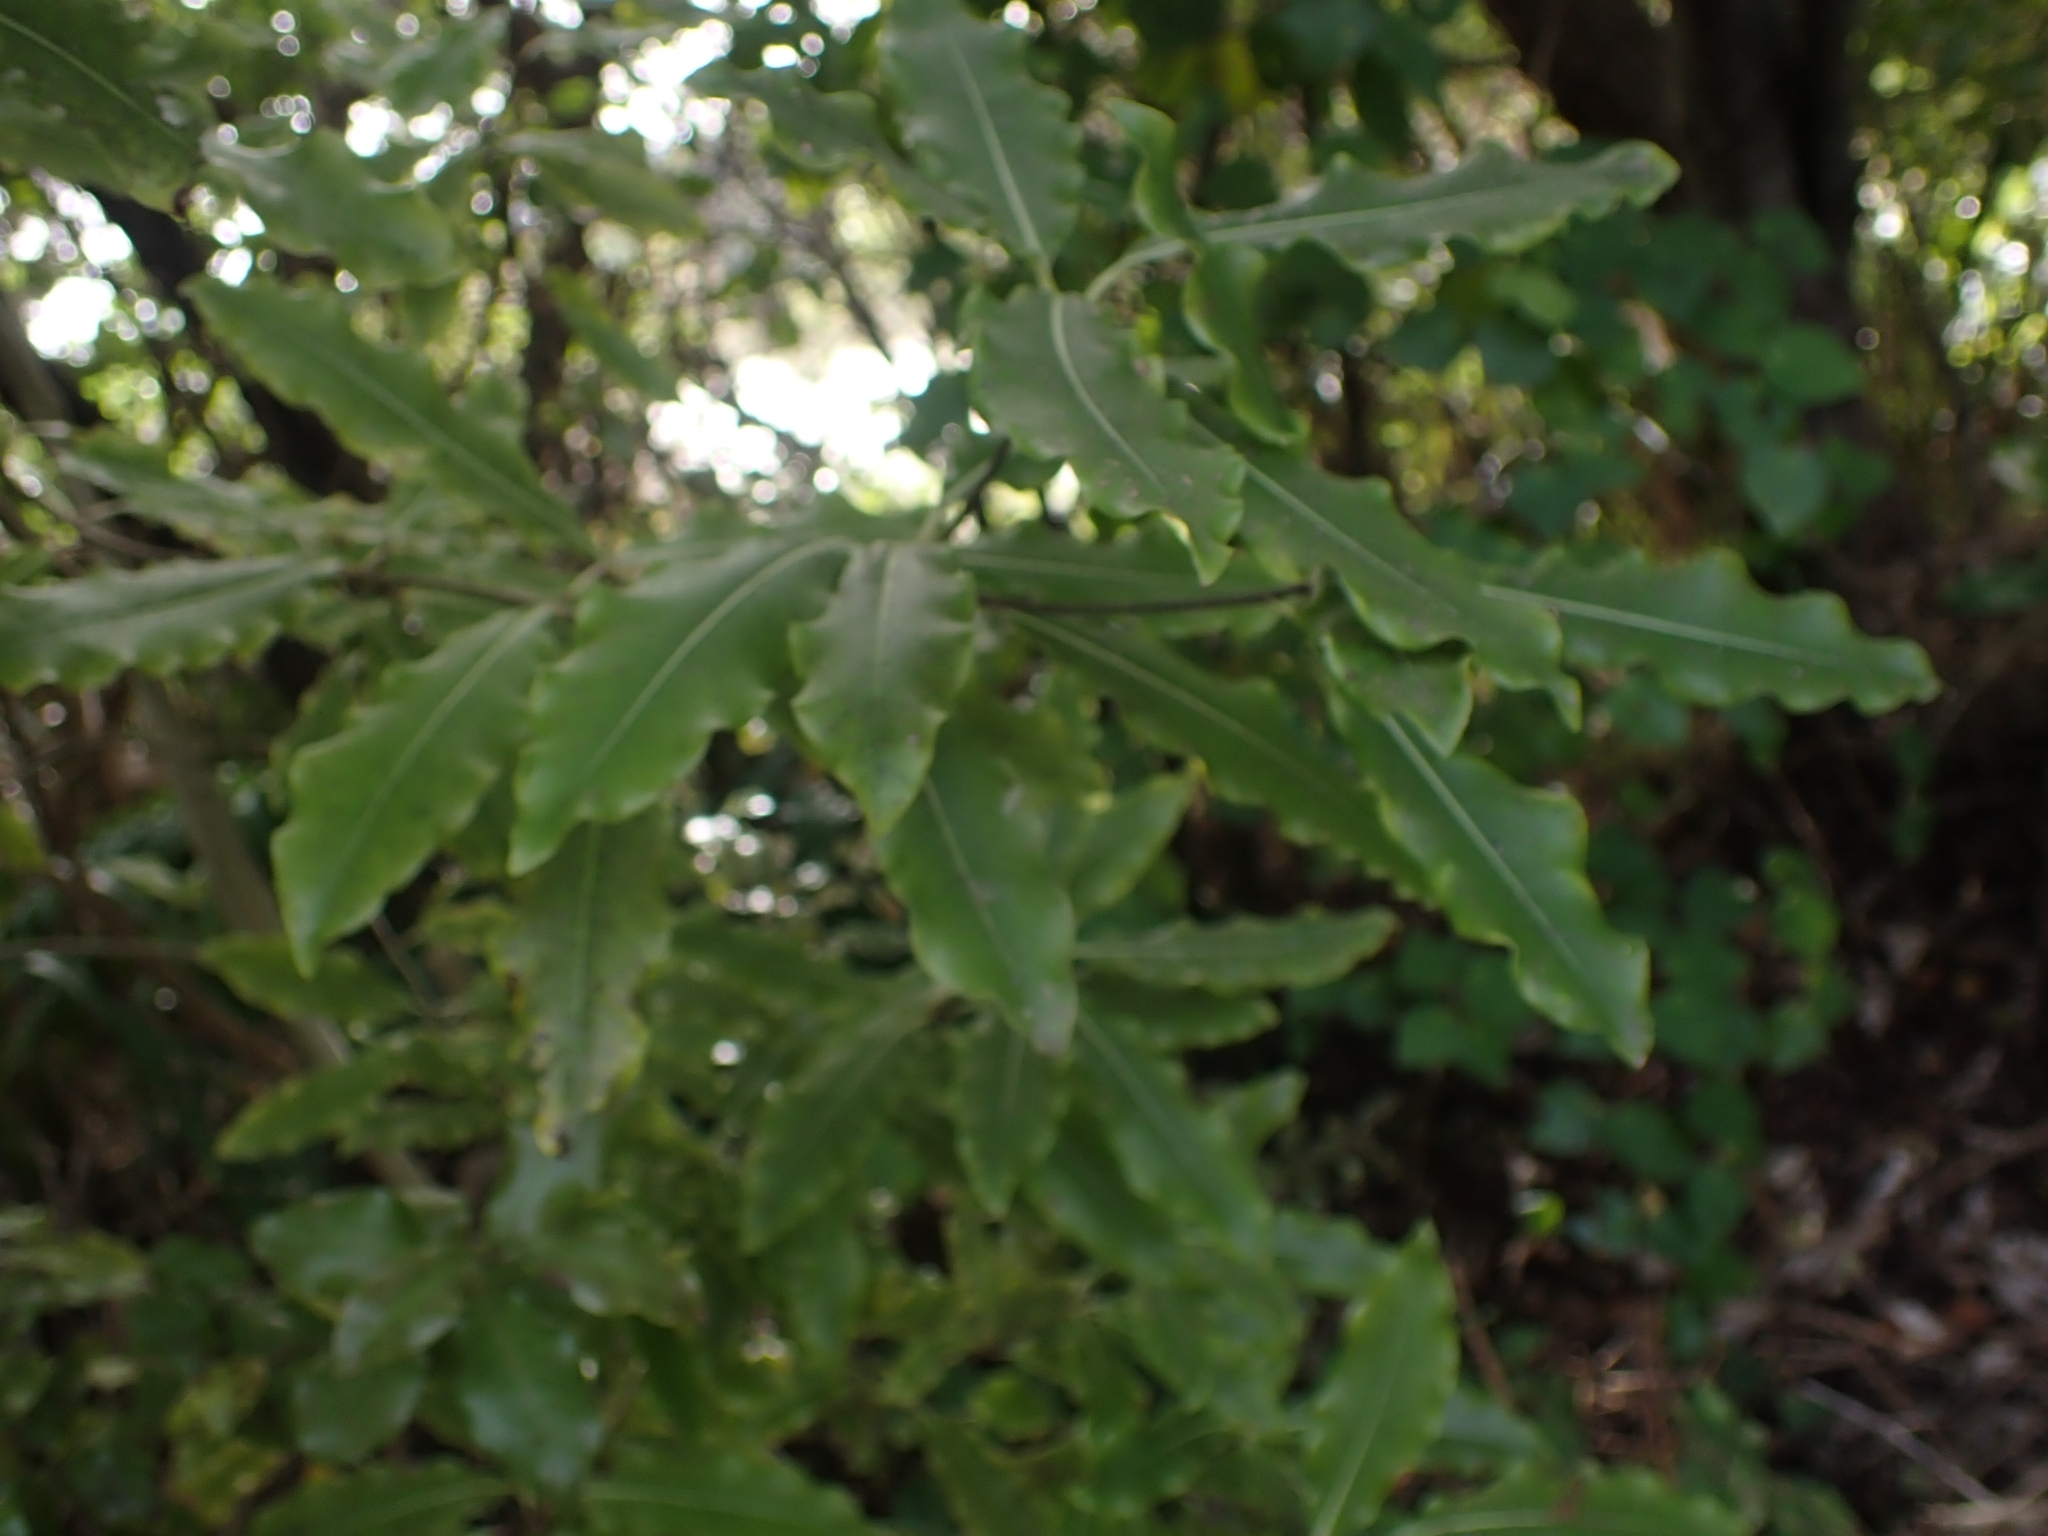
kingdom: Plantae
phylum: Tracheophyta
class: Magnoliopsida
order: Apiales
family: Pittosporaceae
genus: Pittosporum
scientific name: Pittosporum eugenioides
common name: Lemonwood
